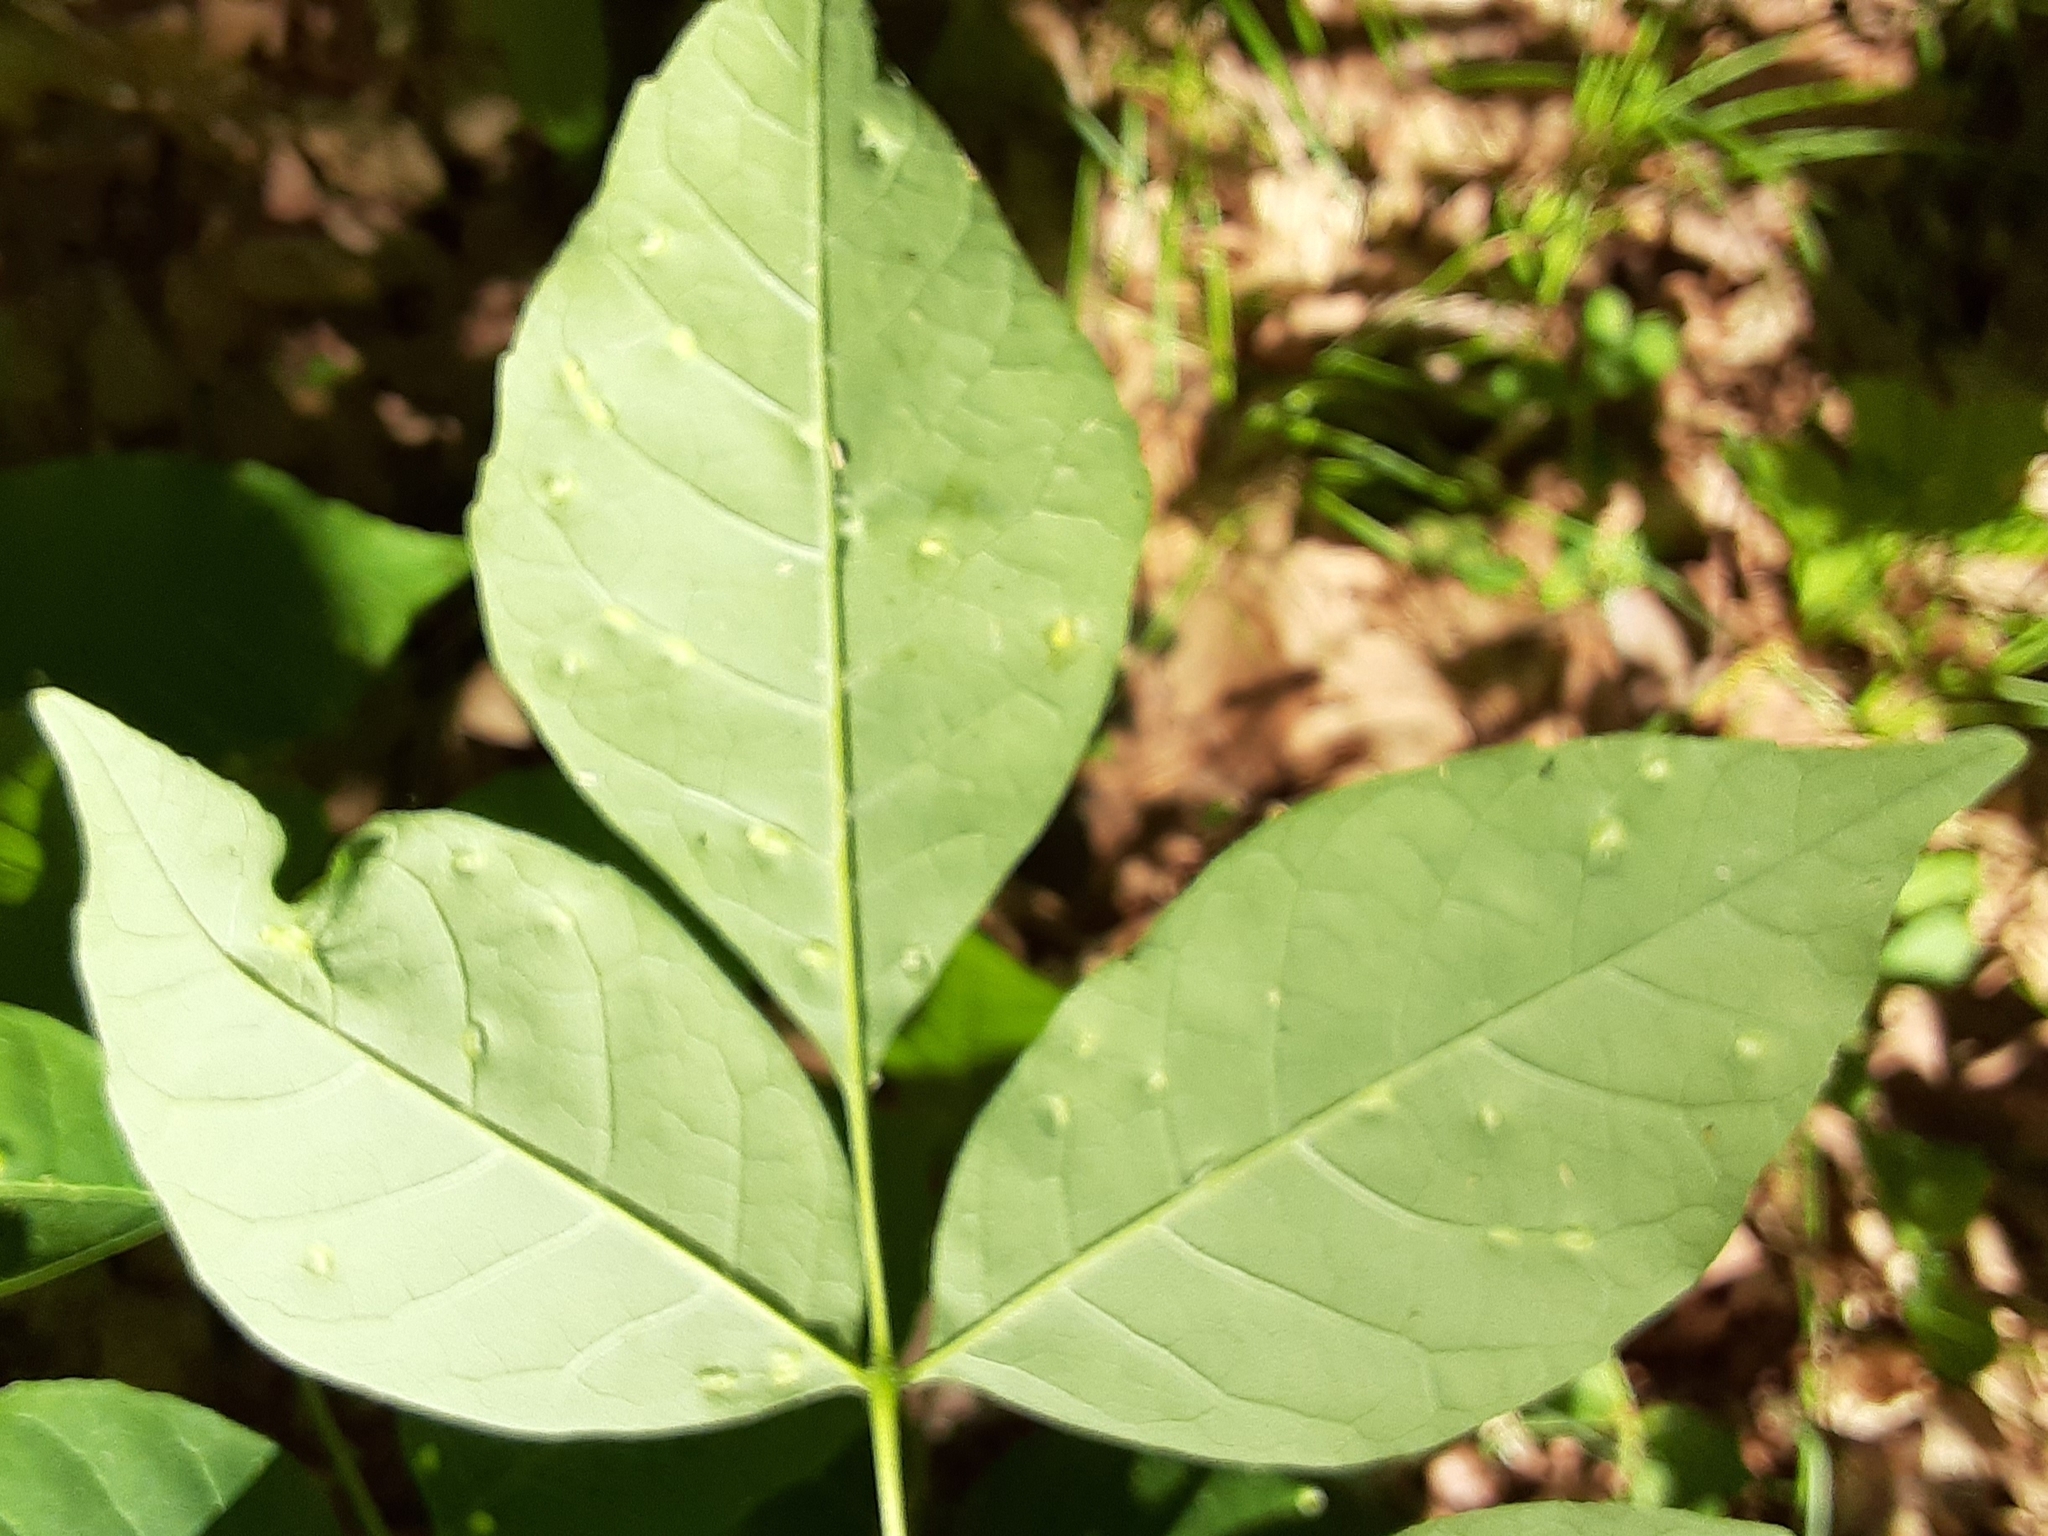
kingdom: Animalia
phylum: Arthropoda
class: Arachnida
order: Trombidiformes
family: Eriophyidae
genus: Aceria
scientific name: Aceria fraxinicola
